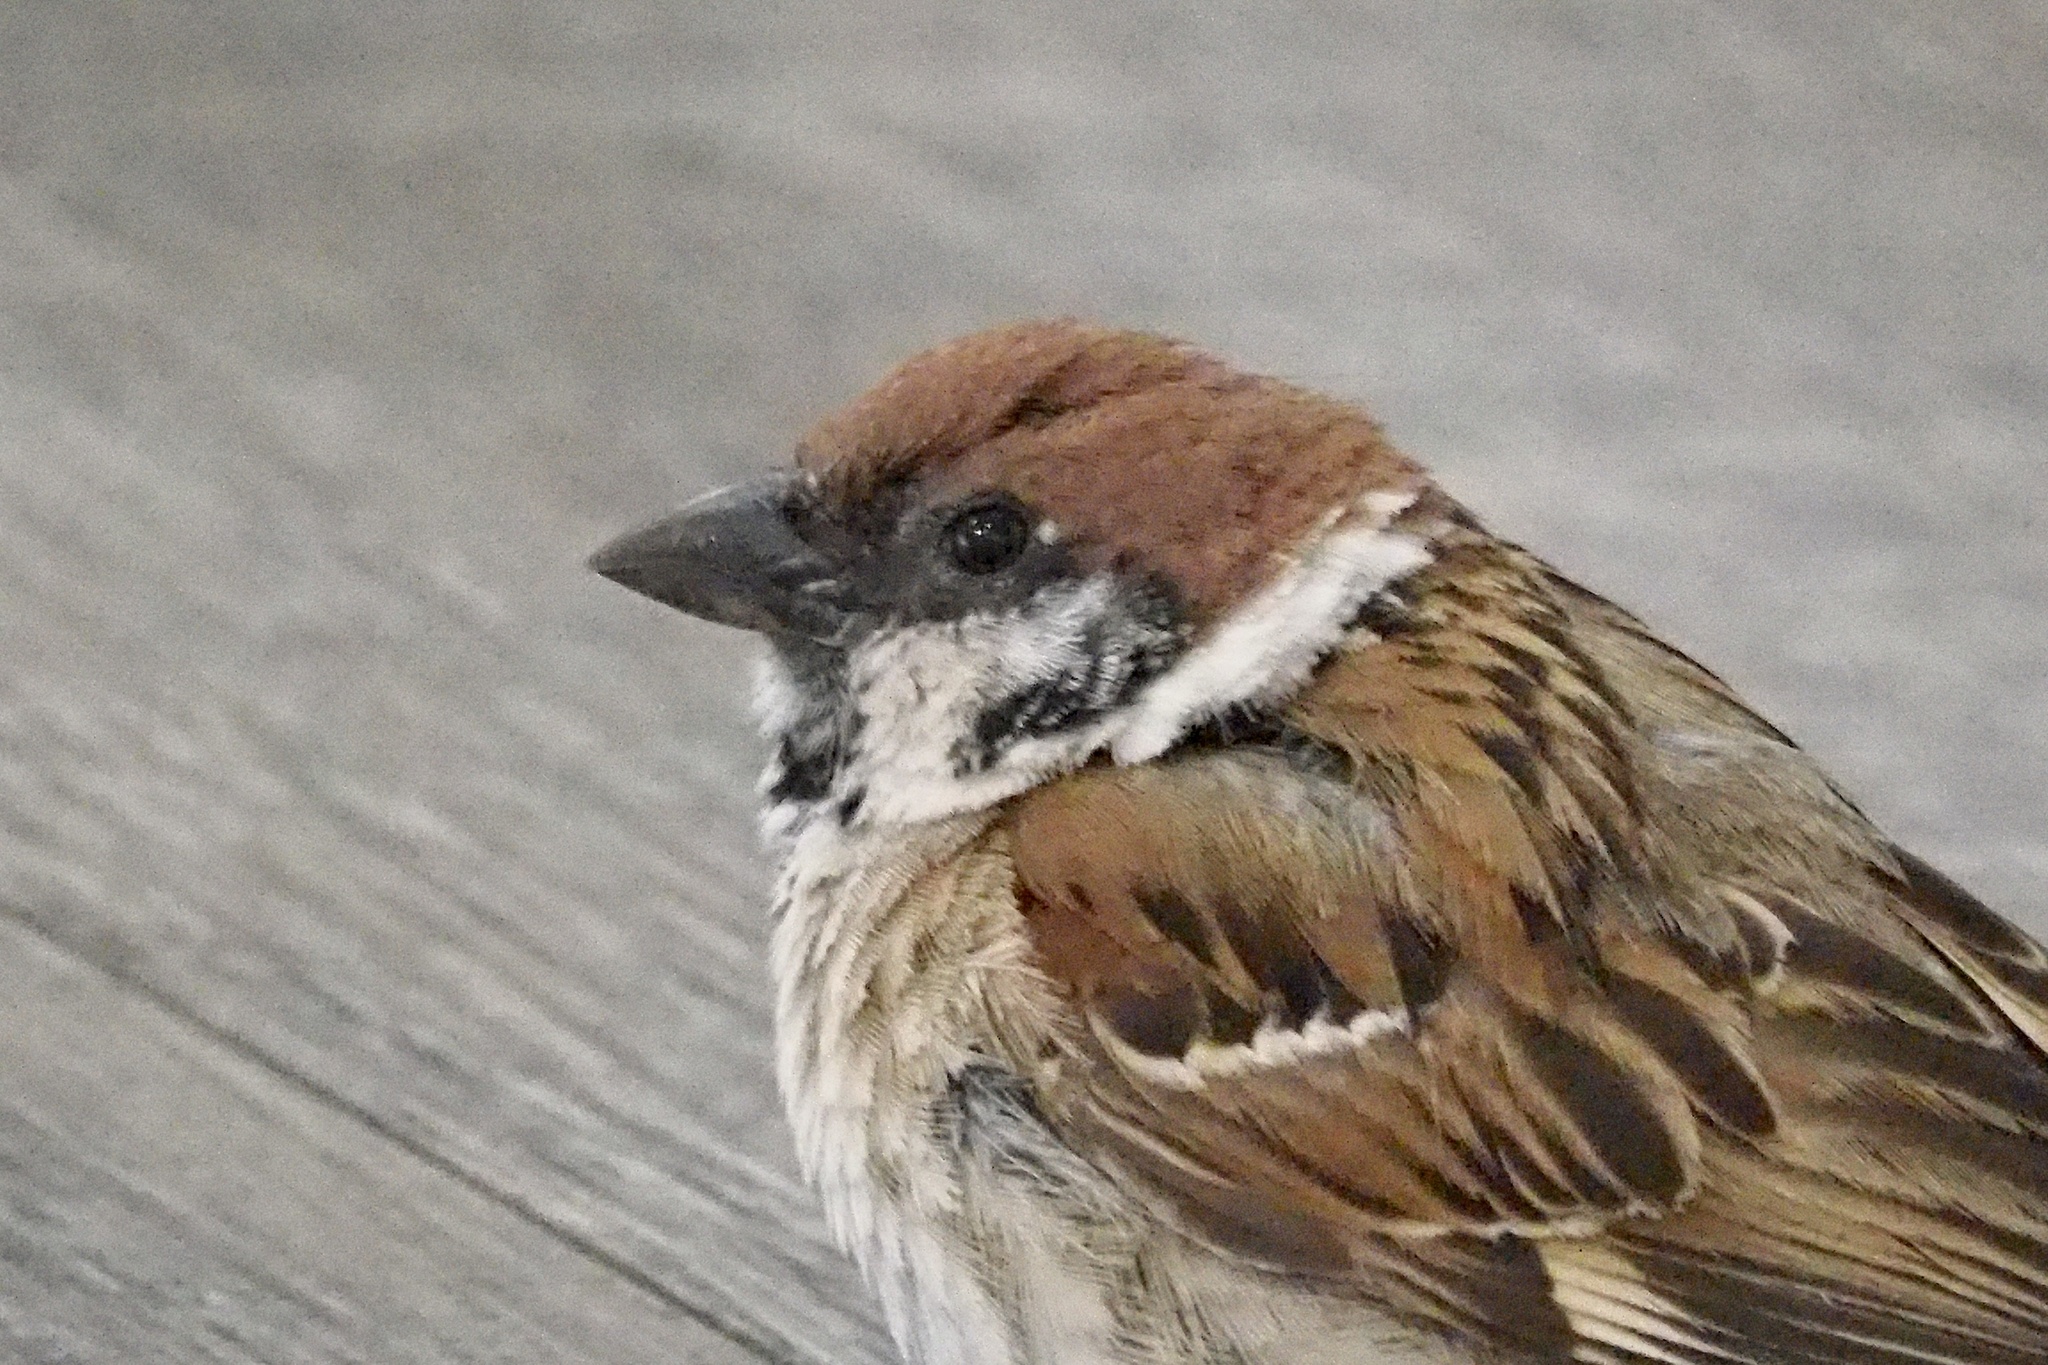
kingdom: Animalia
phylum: Chordata
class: Aves
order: Passeriformes
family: Passeridae
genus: Passer
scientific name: Passer montanus
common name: Eurasian tree sparrow
